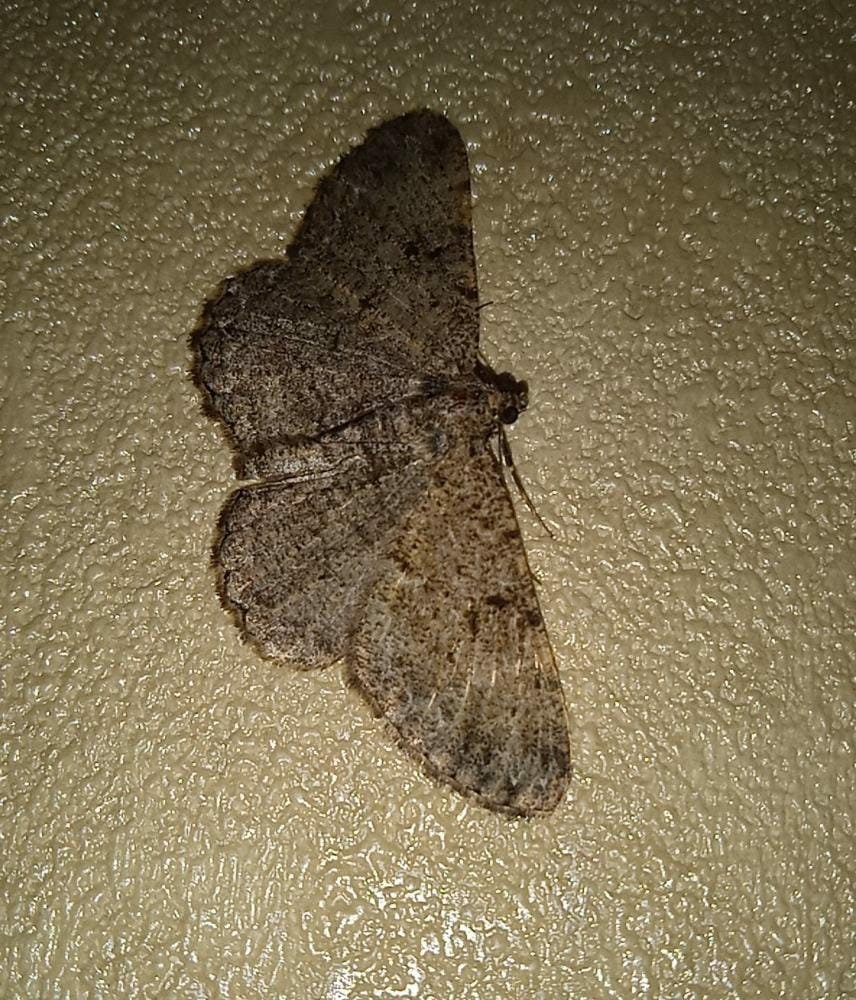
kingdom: Animalia
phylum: Arthropoda
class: Insecta
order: Lepidoptera
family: Geometridae
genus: Peribatodes
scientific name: Peribatodes rhomboidaria
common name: Willow beauty
